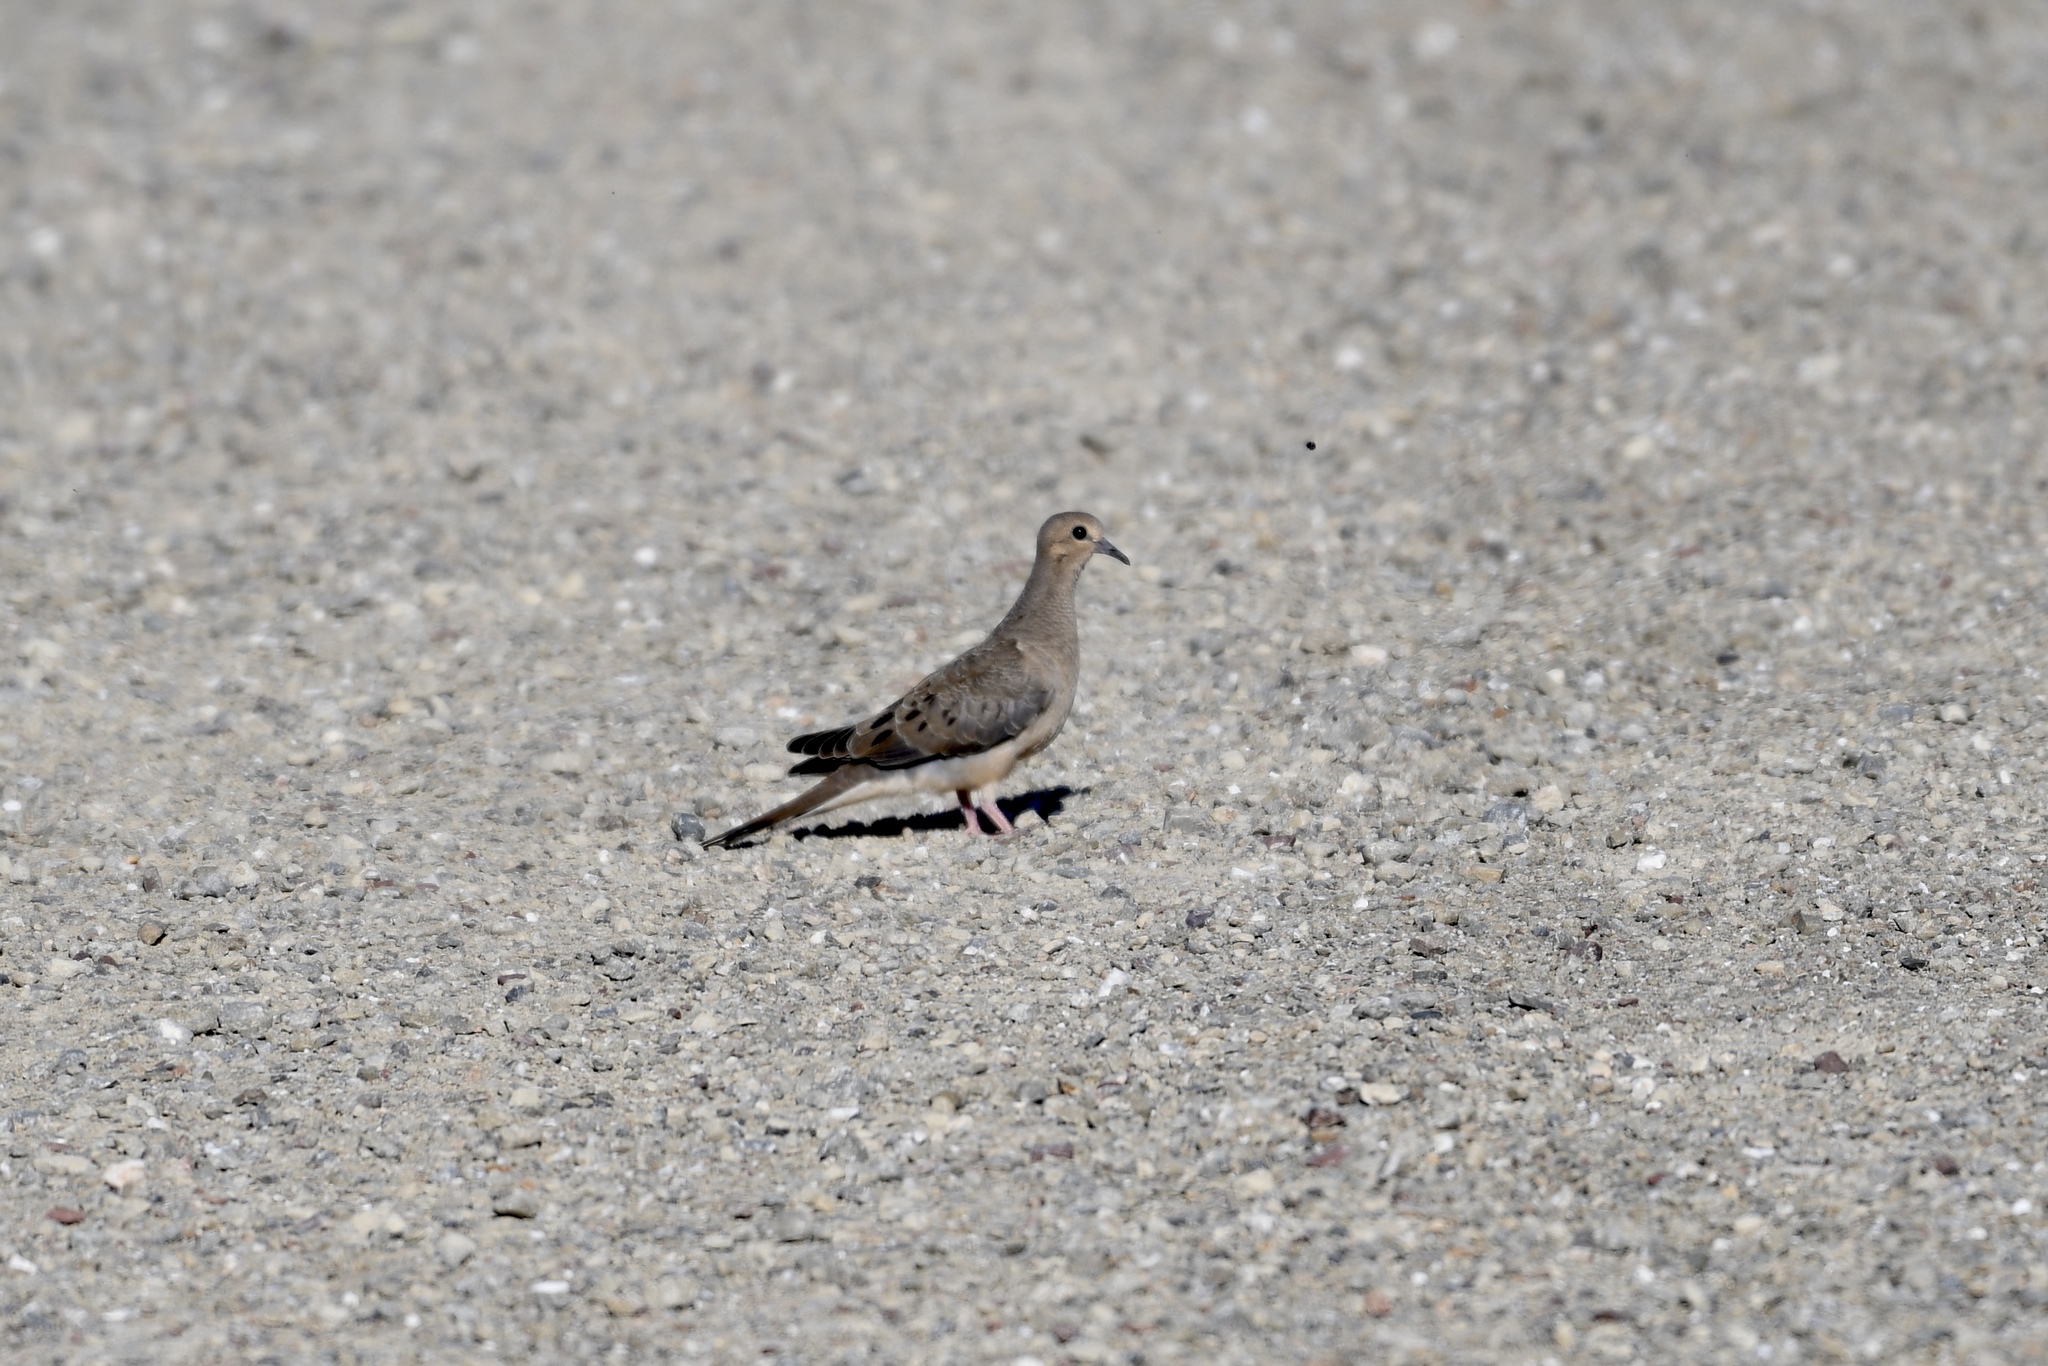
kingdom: Animalia
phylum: Chordata
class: Aves
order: Columbiformes
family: Columbidae
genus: Zenaida
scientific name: Zenaida macroura
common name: Mourning dove
